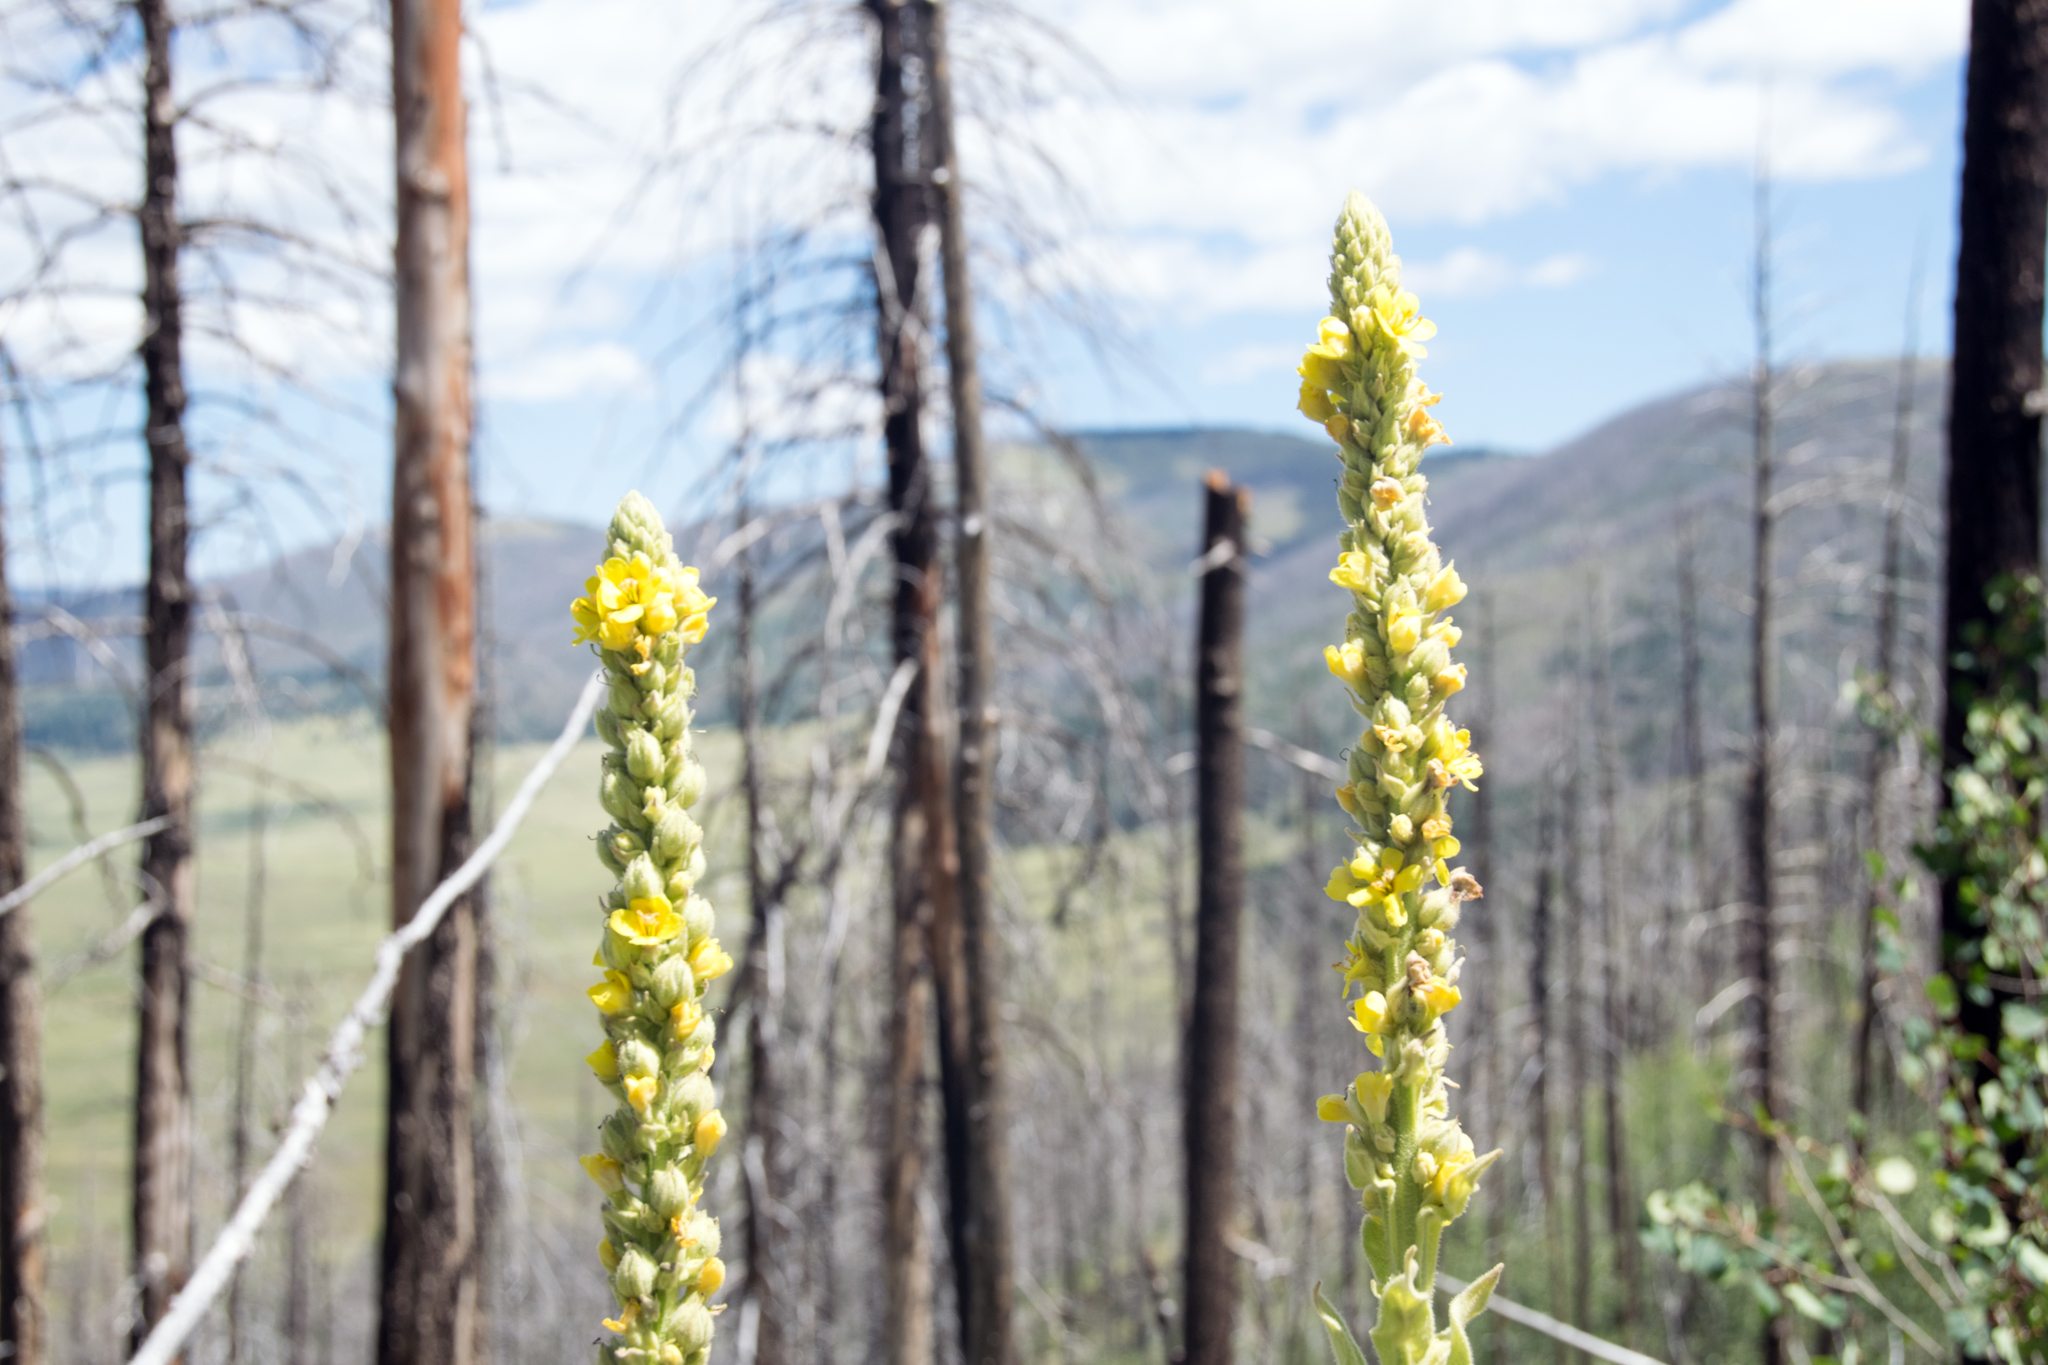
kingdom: Plantae
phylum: Tracheophyta
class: Magnoliopsida
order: Lamiales
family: Scrophulariaceae
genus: Verbascum
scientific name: Verbascum thapsus
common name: Common mullein
